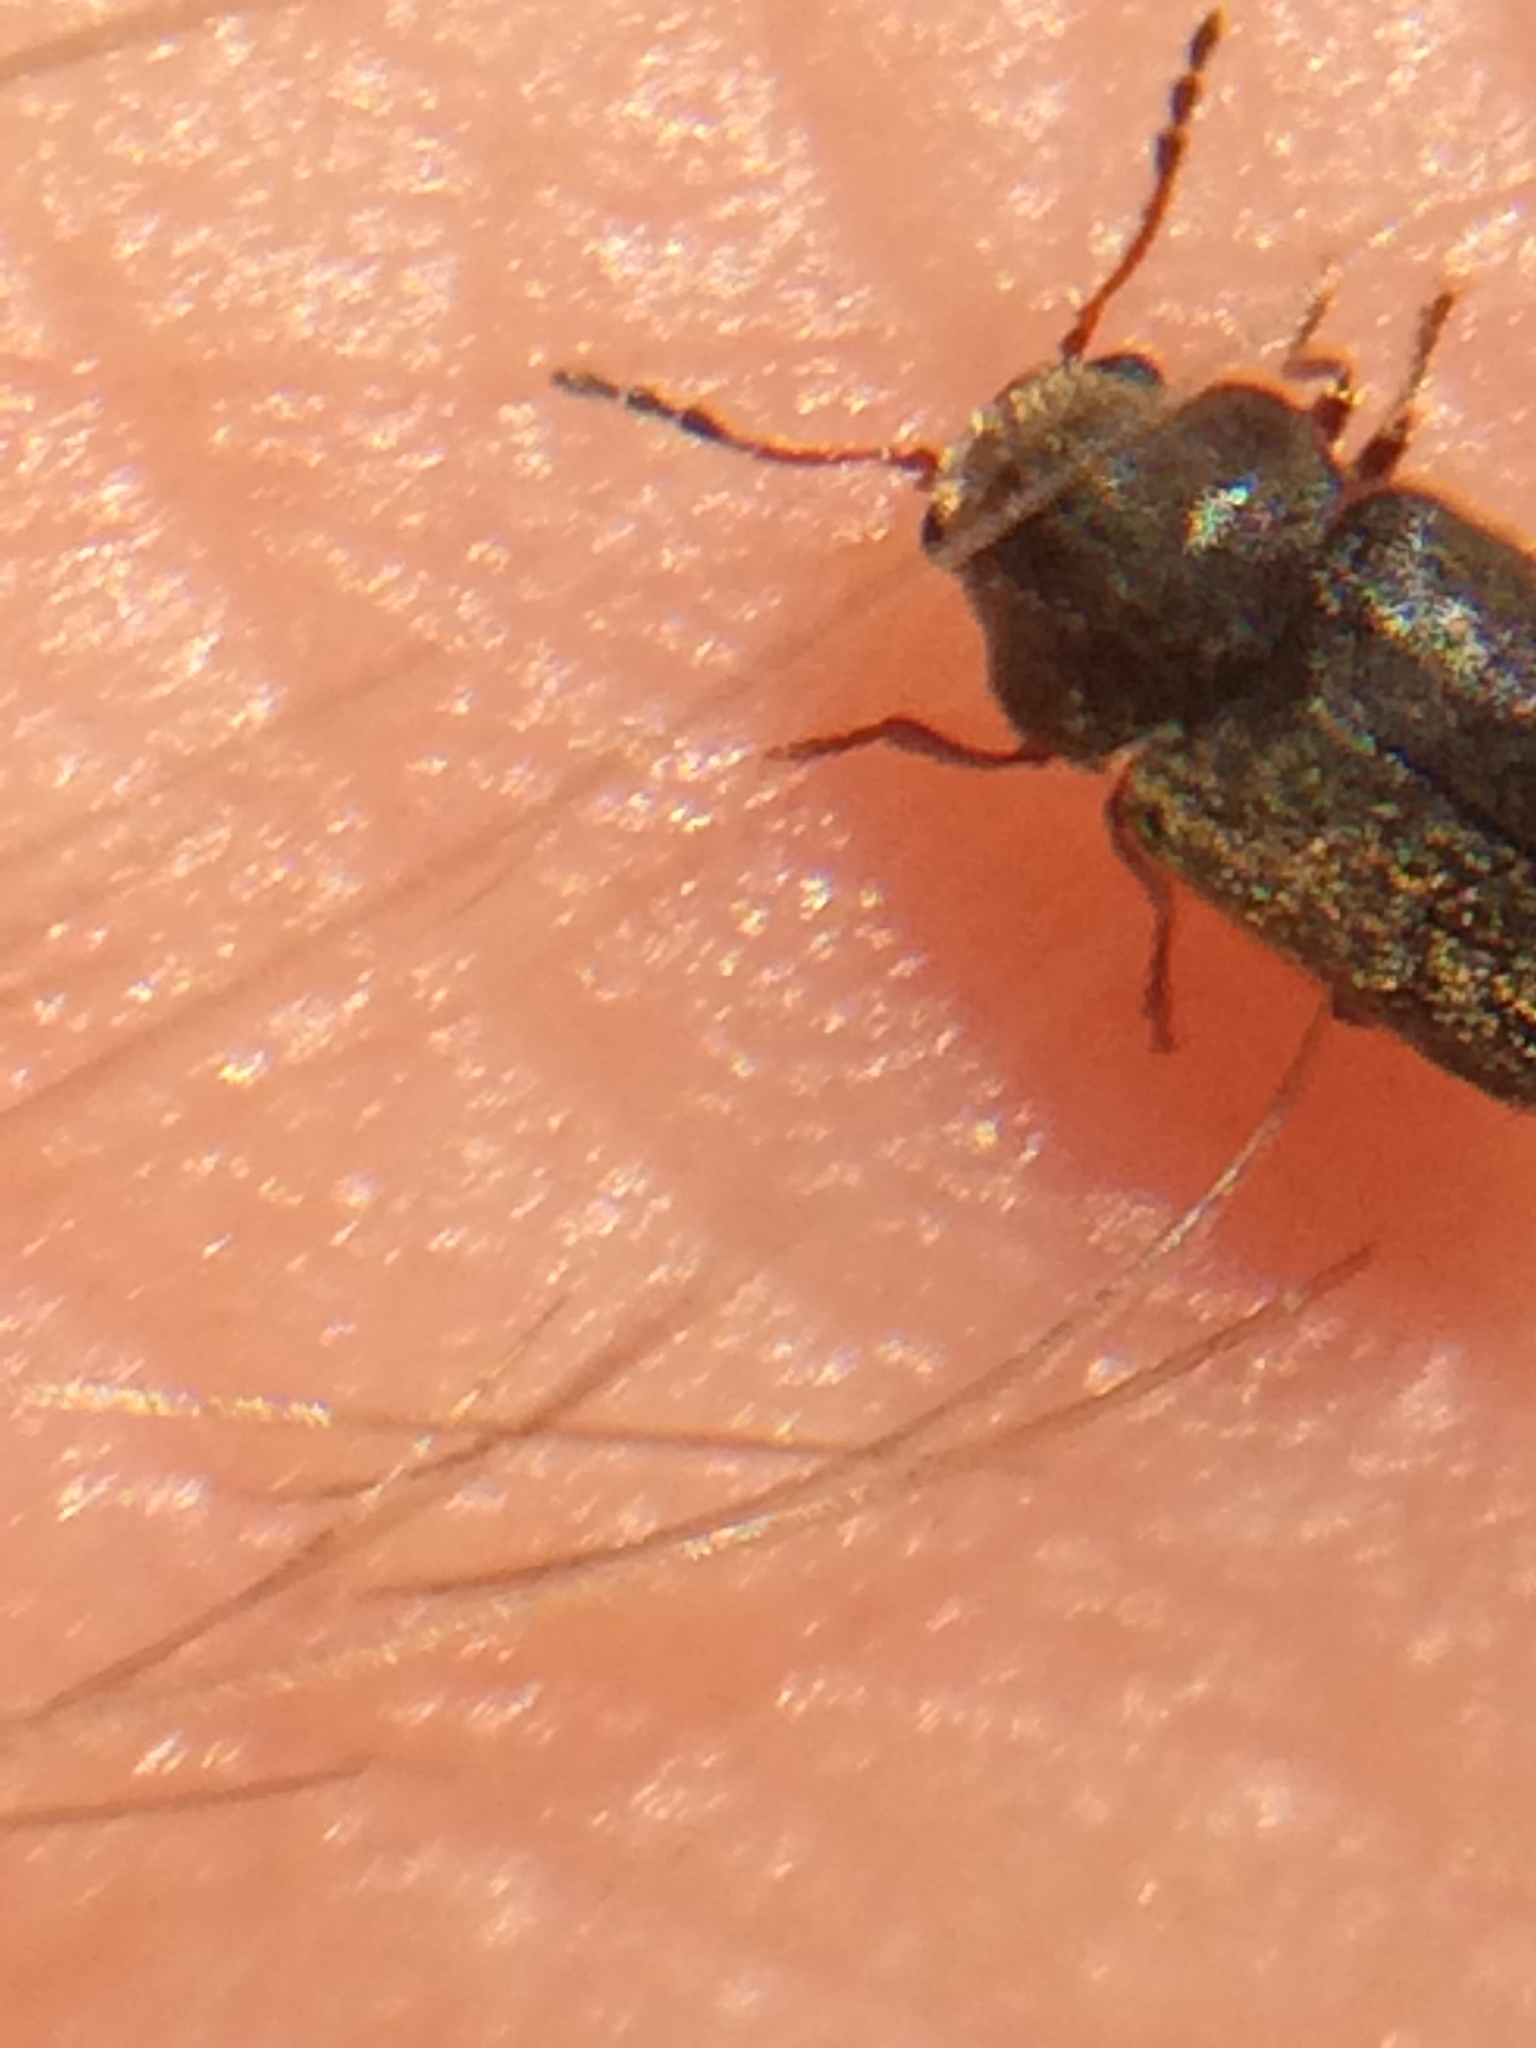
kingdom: Animalia
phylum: Arthropoda
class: Insecta
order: Coleoptera
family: Anobiidae
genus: Ozognathus
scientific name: Ozognathus cornutus
